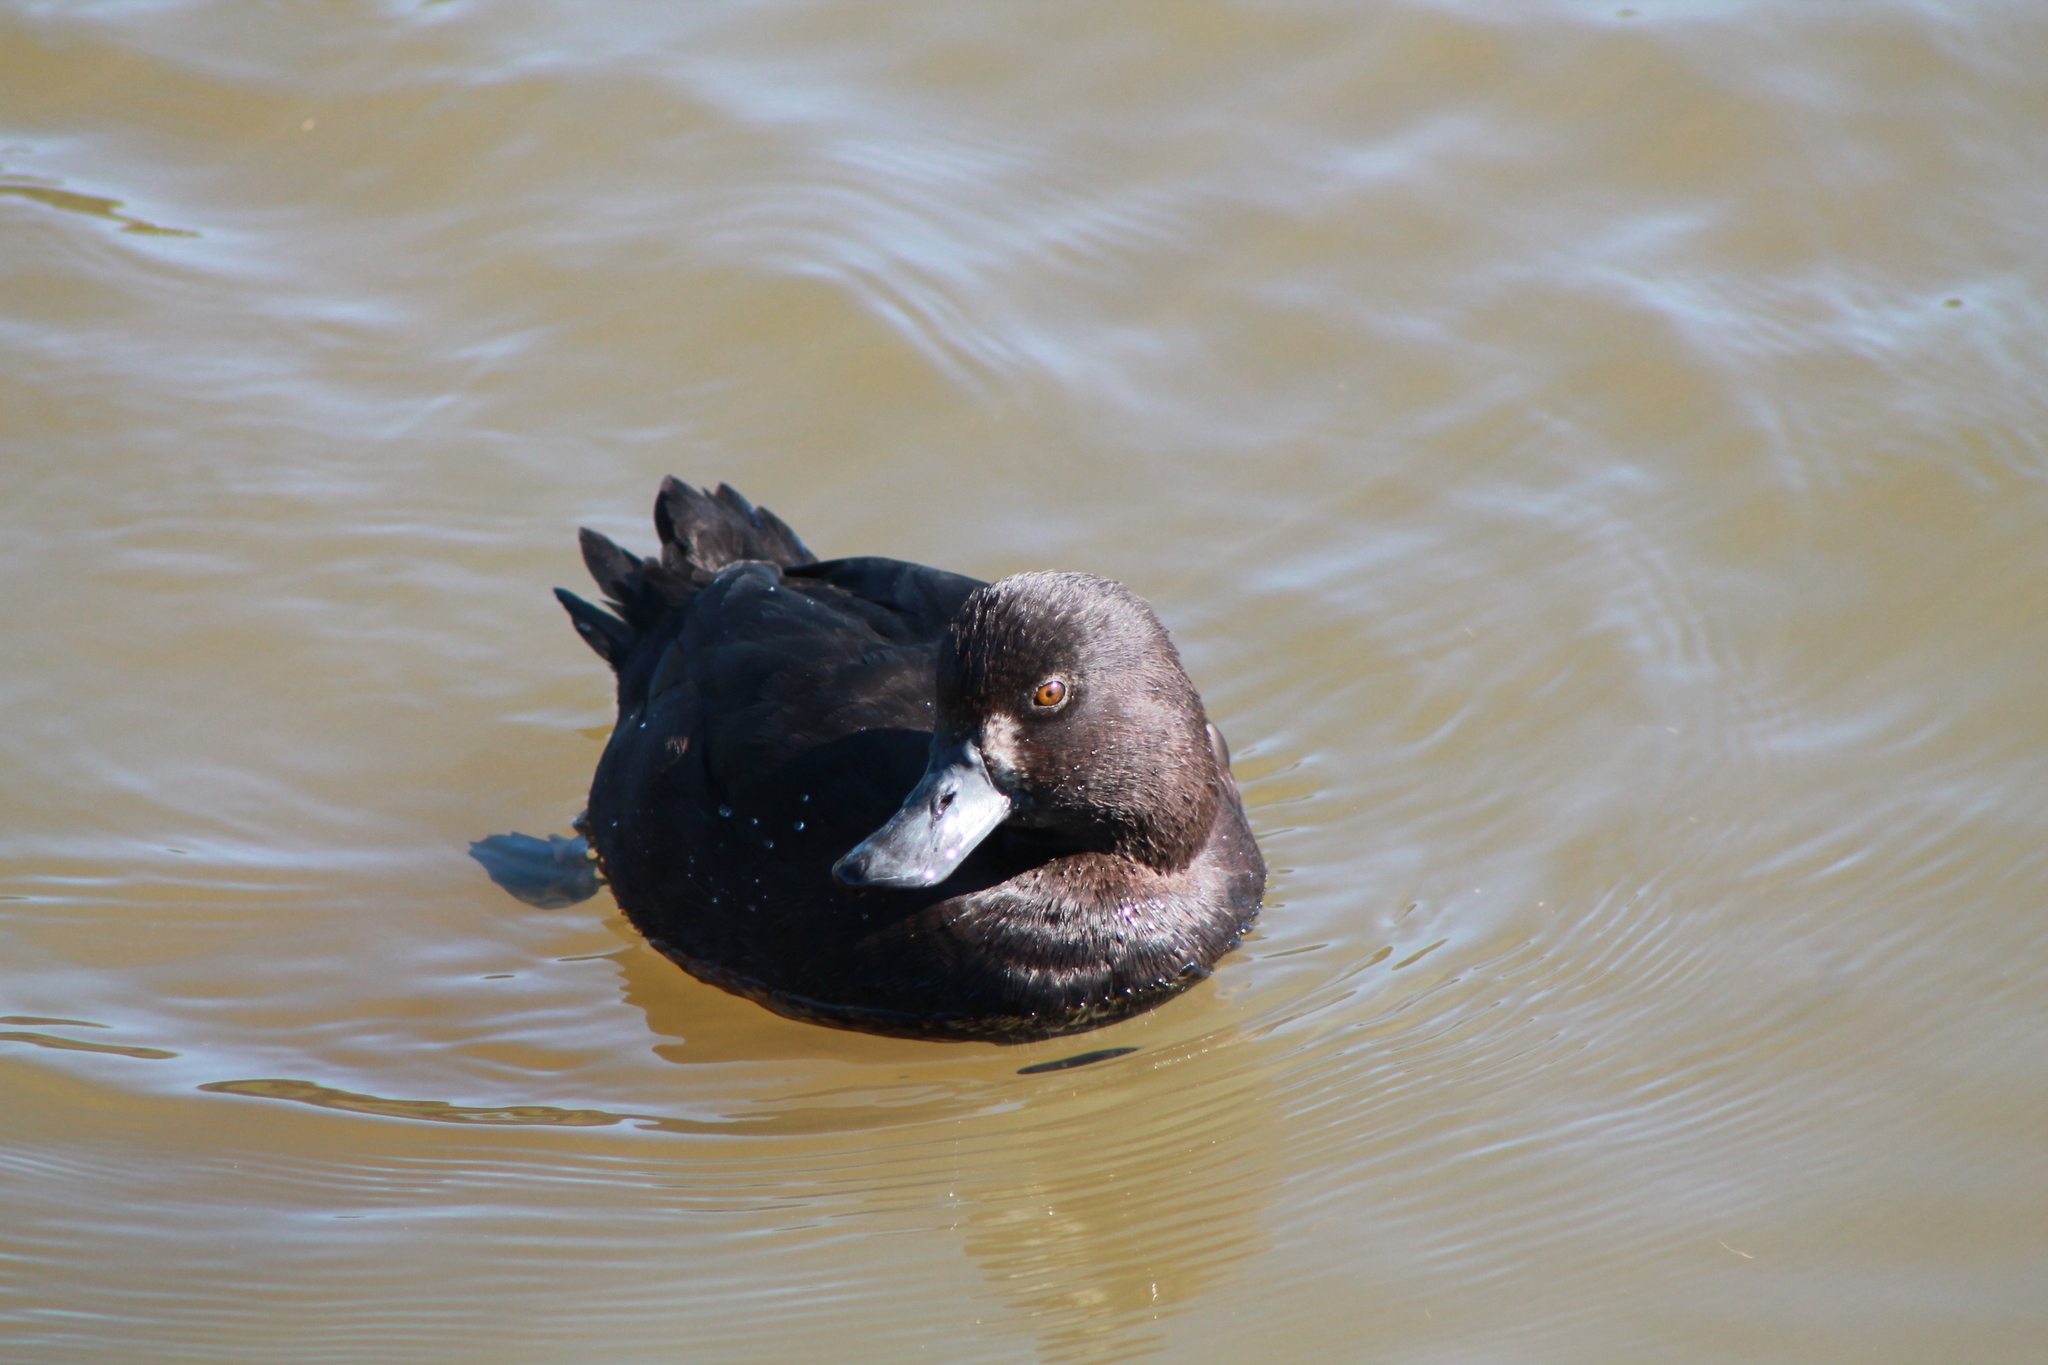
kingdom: Animalia
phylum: Chordata
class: Aves
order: Anseriformes
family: Anatidae
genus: Aythya
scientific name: Aythya novaeseelandiae
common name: New zealand scaup
